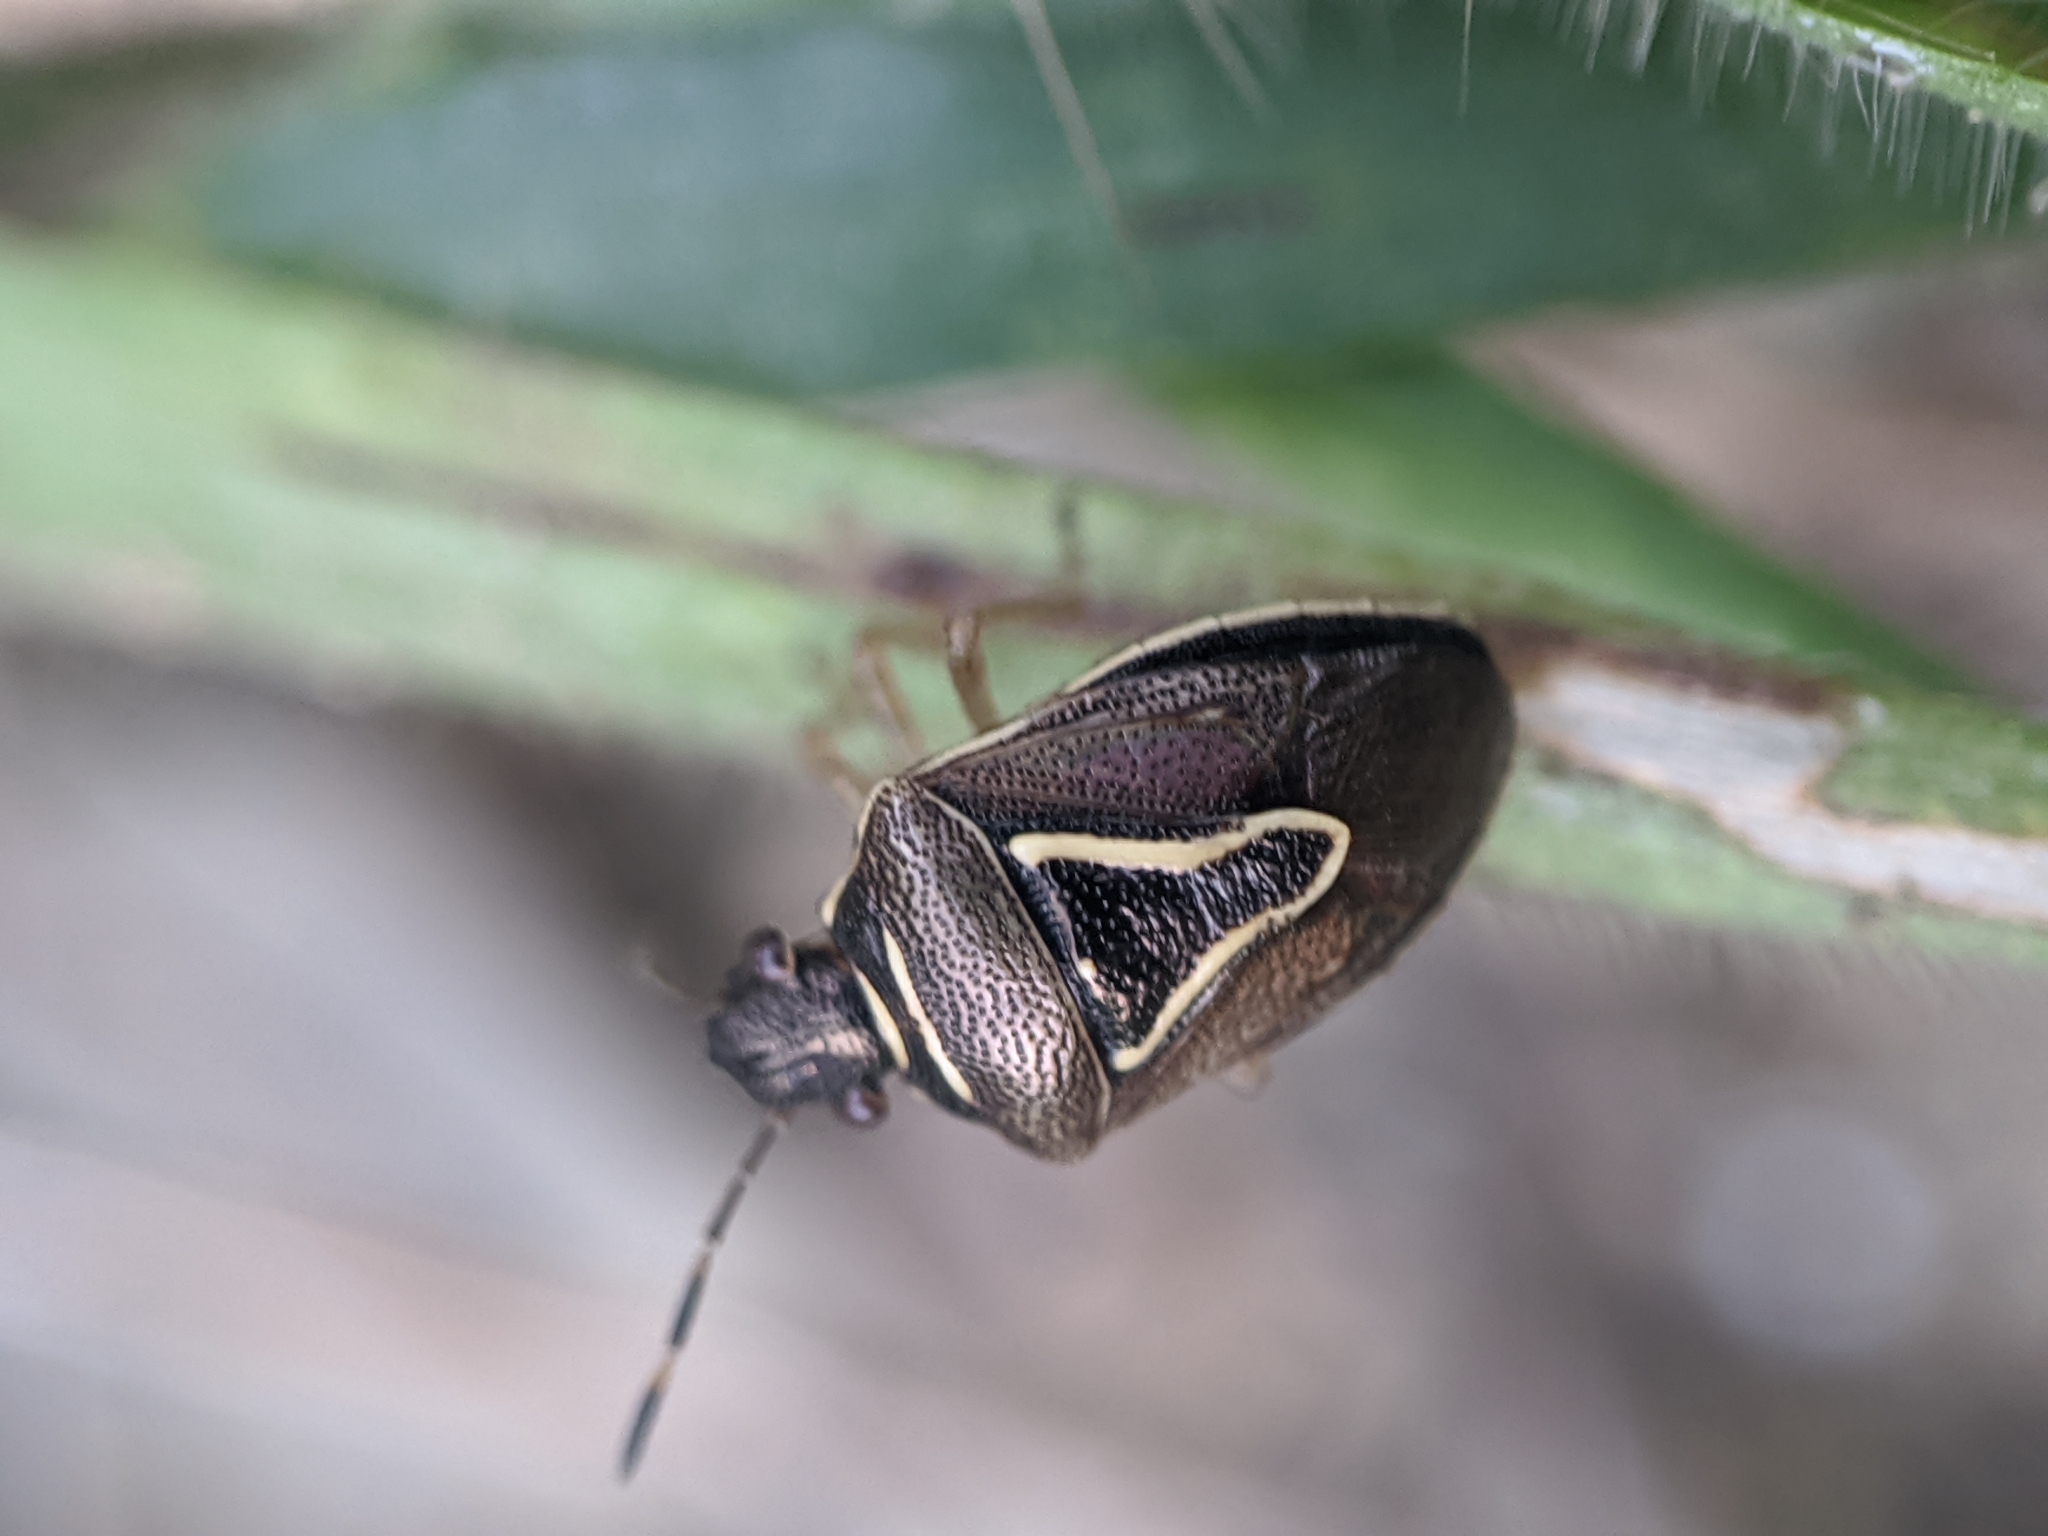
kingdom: Animalia
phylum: Arthropoda
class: Insecta
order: Hemiptera
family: Pentatomidae
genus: Mormidea
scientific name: Mormidea lugens
